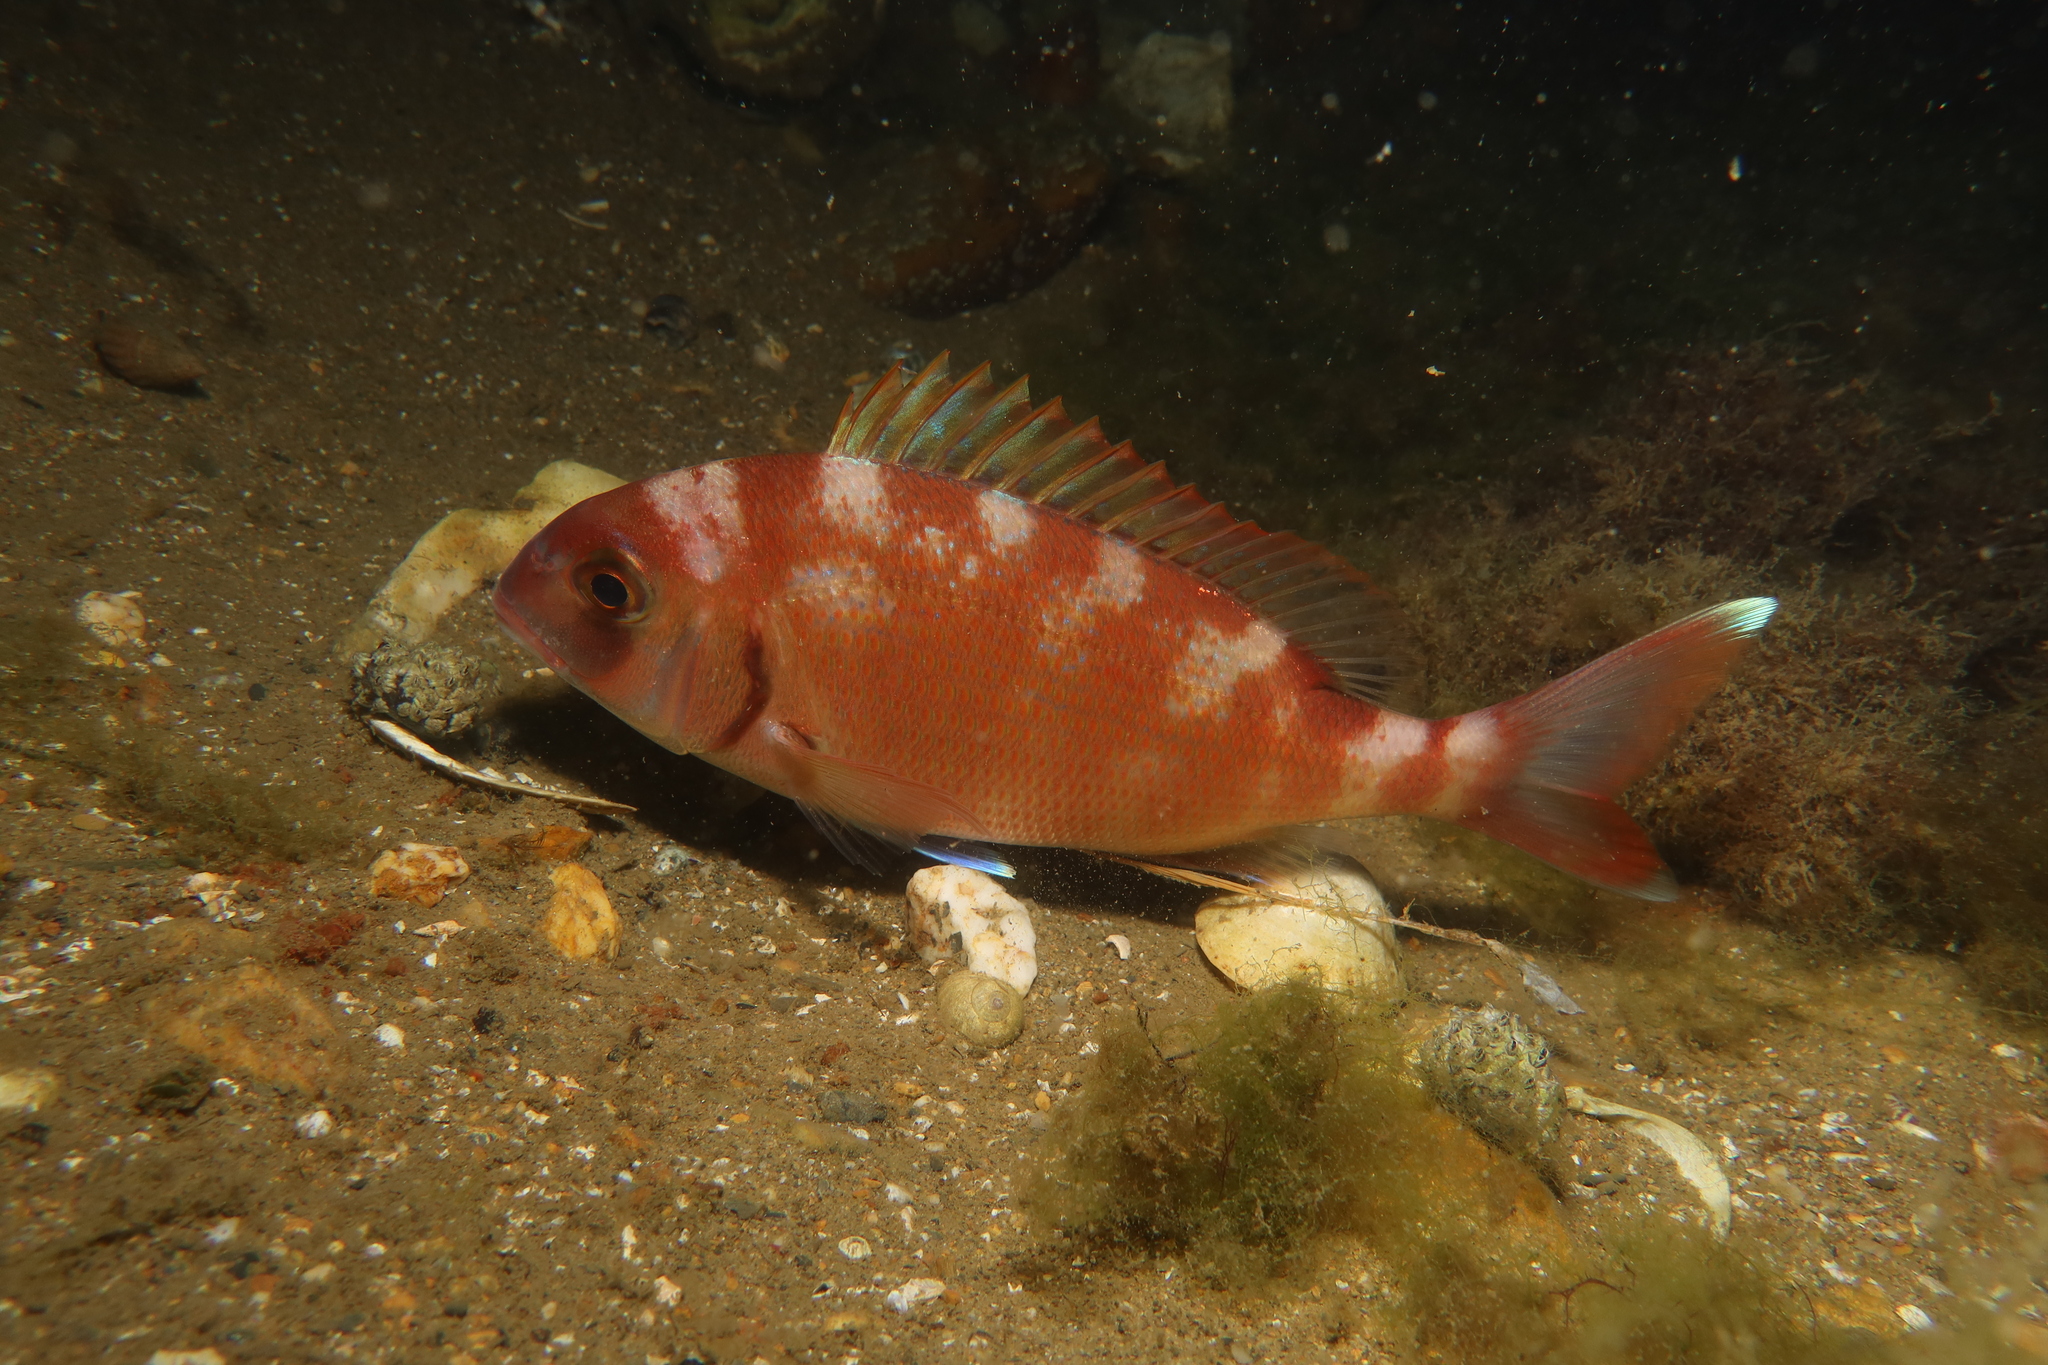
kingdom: Animalia
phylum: Chordata
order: Perciformes
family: Sparidae
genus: Pagrus
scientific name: Pagrus pagrus
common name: Red porgy
